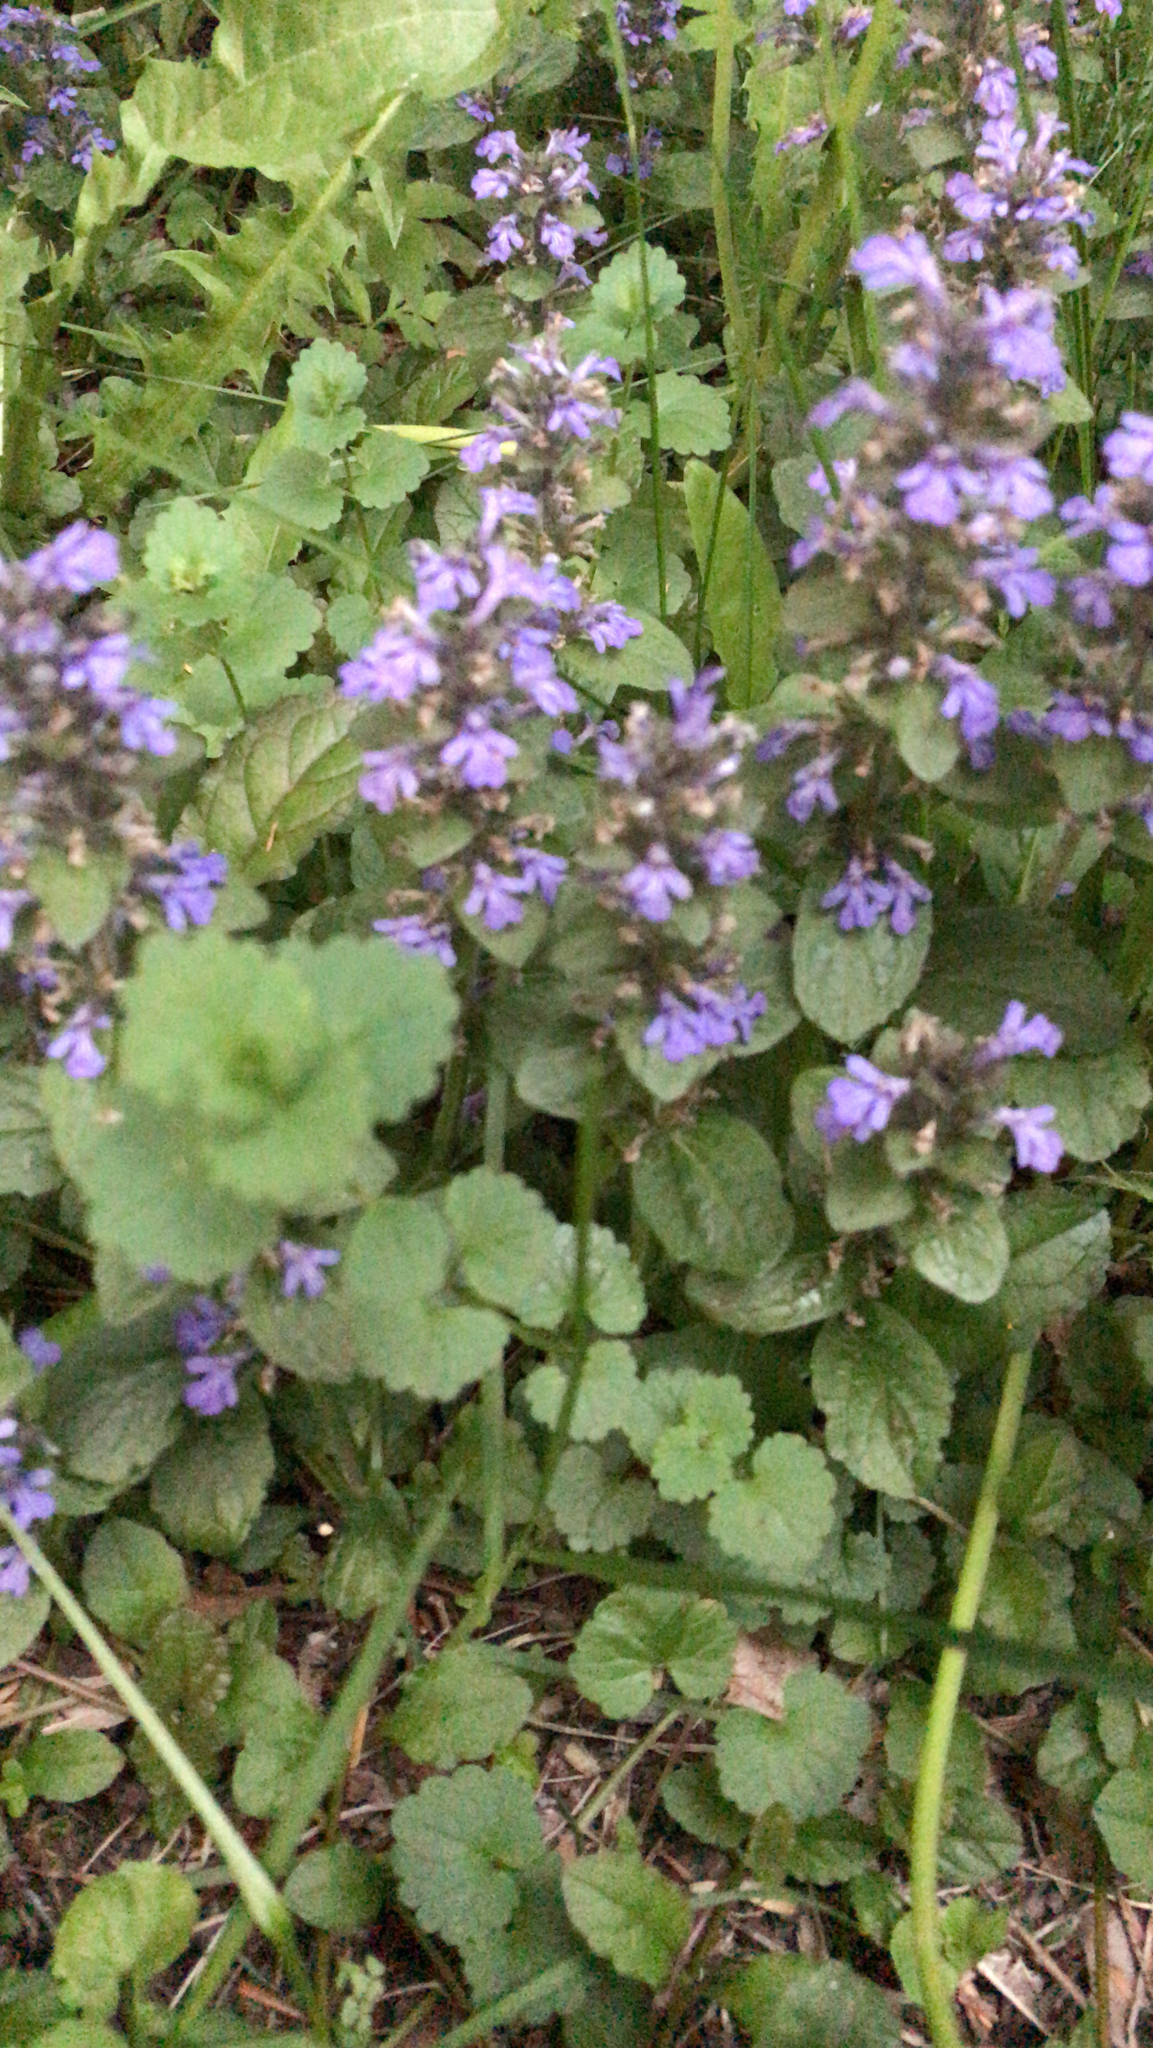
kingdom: Plantae
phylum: Tracheophyta
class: Magnoliopsida
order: Lamiales
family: Lamiaceae
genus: Glechoma
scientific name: Glechoma hederacea
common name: Ground ivy
